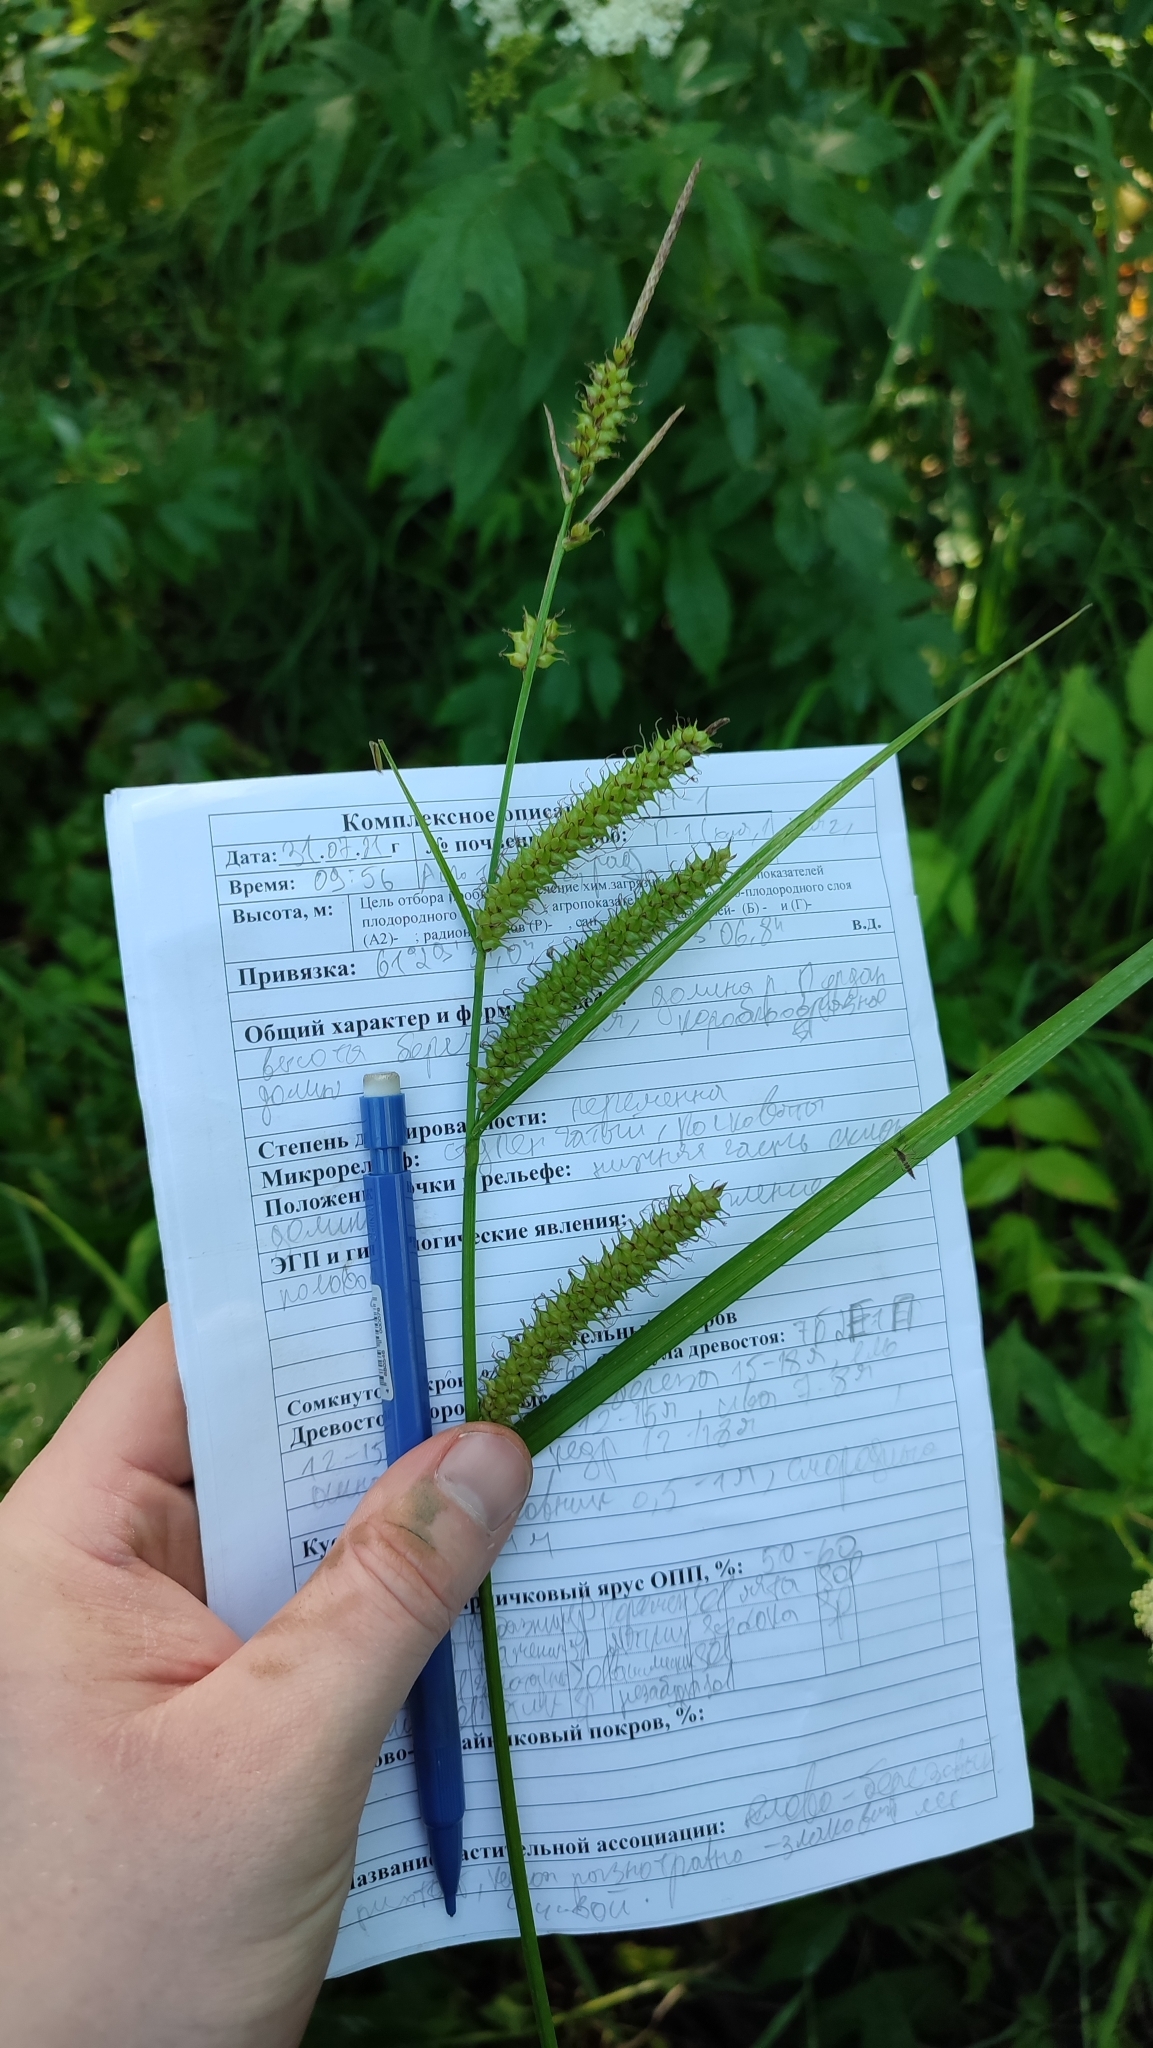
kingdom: Plantae
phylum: Tracheophyta
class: Liliopsida
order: Poales
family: Cyperaceae
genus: Carex
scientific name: Carex utriculata
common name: Beaked sedge
